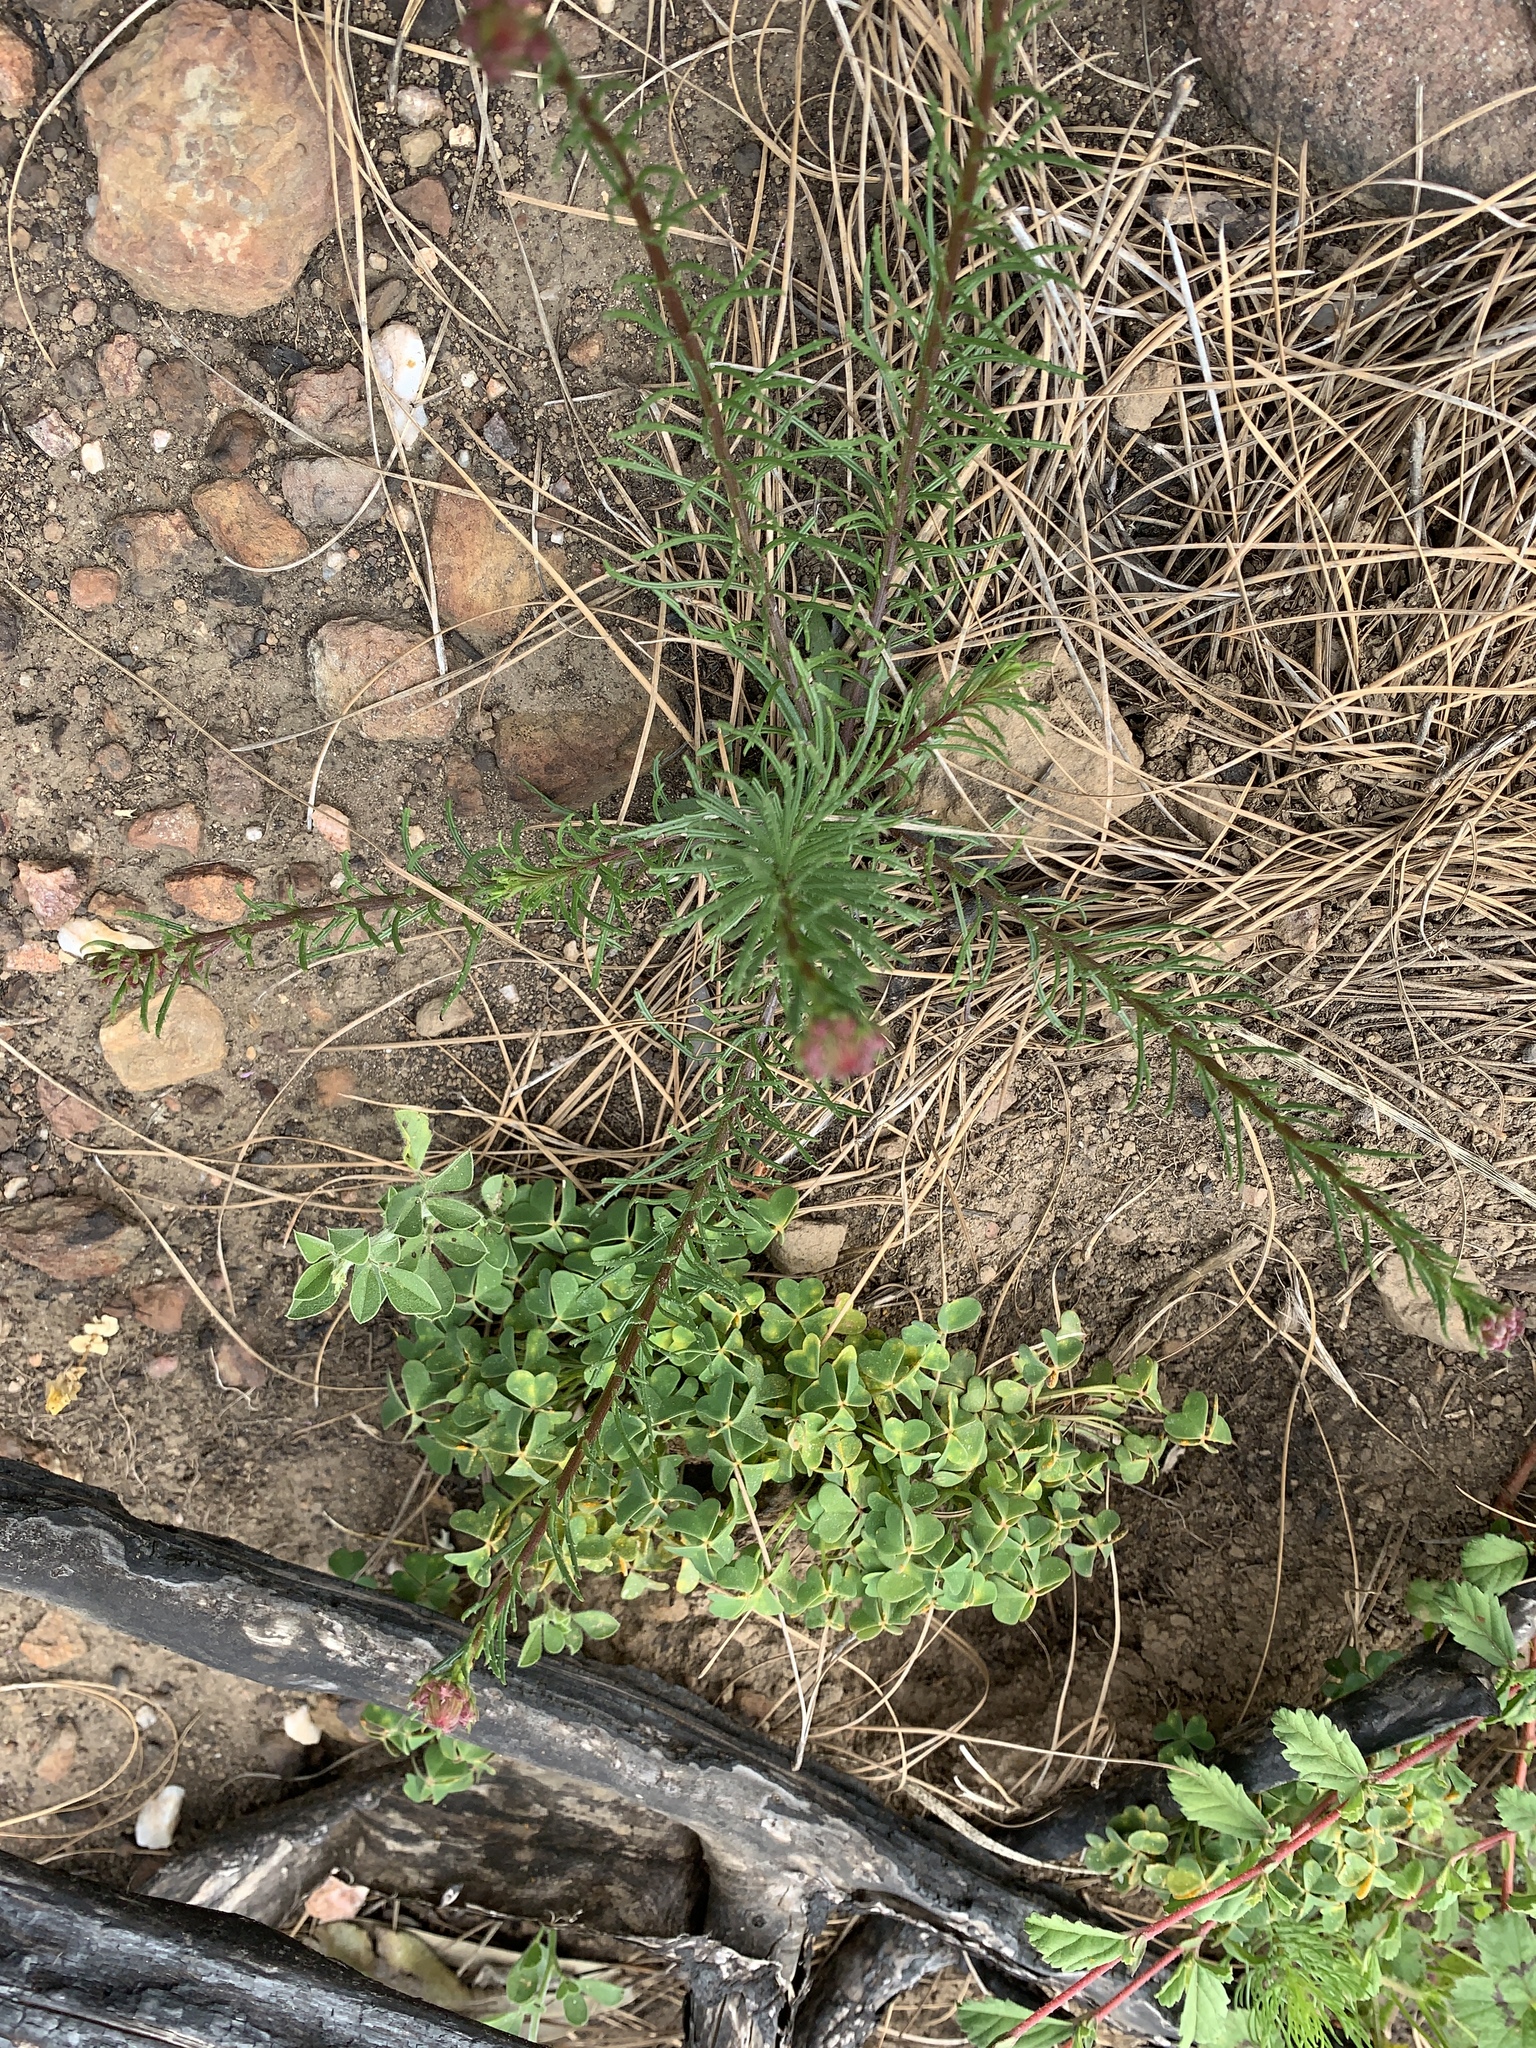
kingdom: Plantae
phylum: Tracheophyta
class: Magnoliopsida
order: Lamiales
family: Scrophulariaceae
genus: Pseudoselago
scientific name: Pseudoselago spuria
